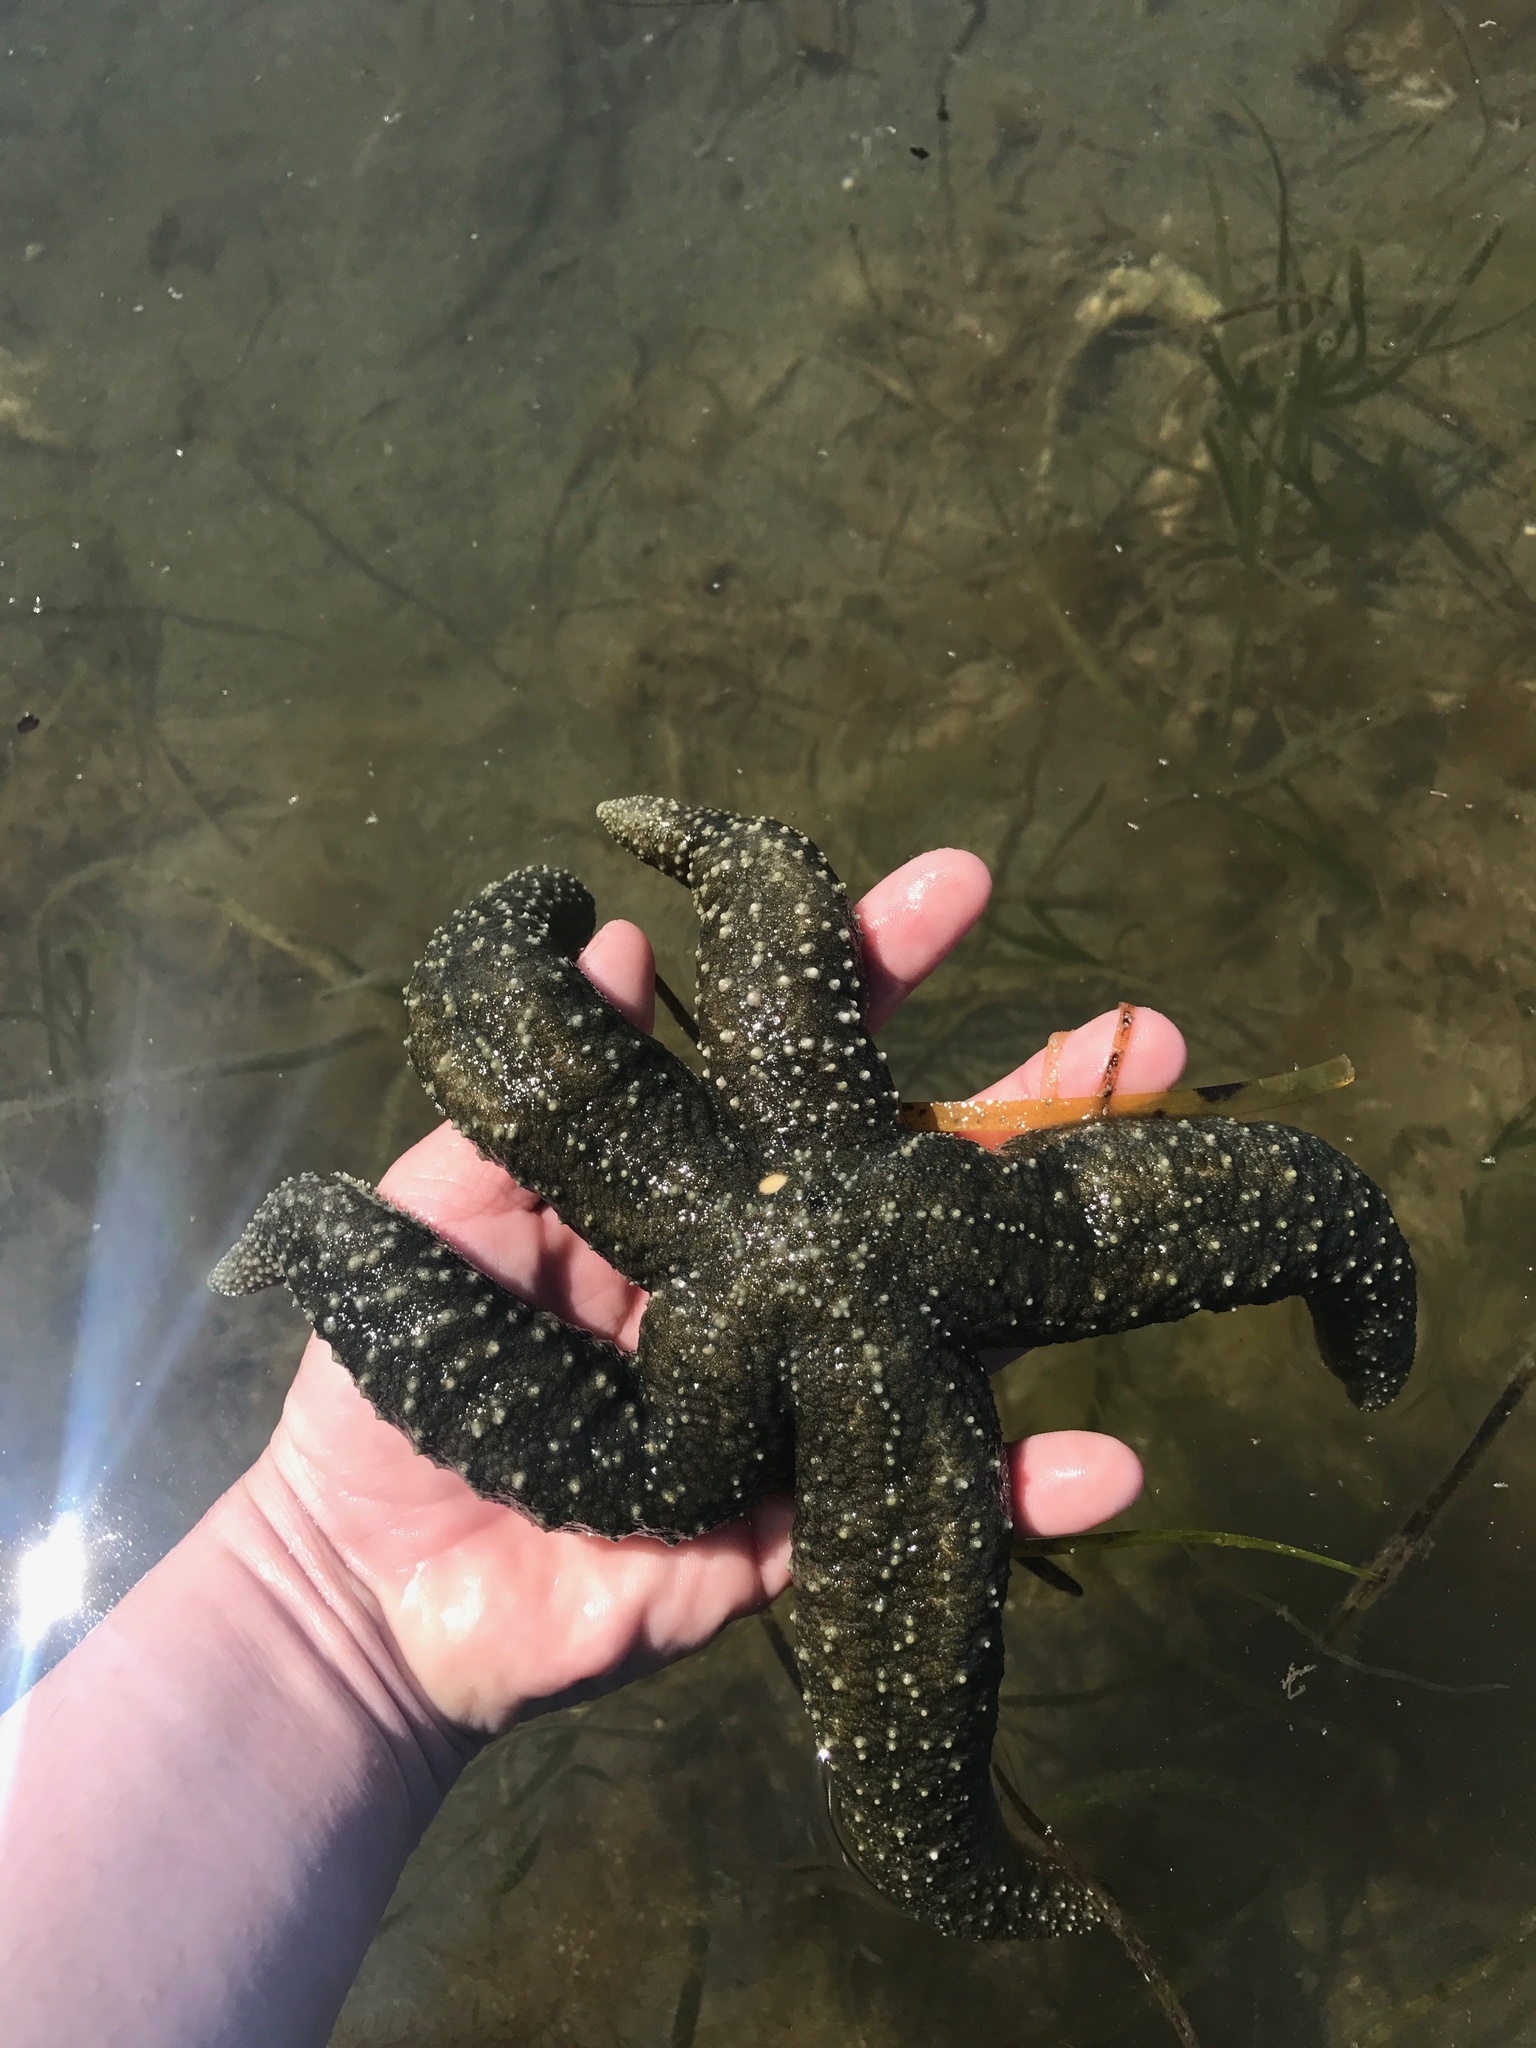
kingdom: Animalia
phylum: Echinodermata
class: Asteroidea
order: Forcipulatida
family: Asteriidae
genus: Evasterias
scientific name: Evasterias troschelii
